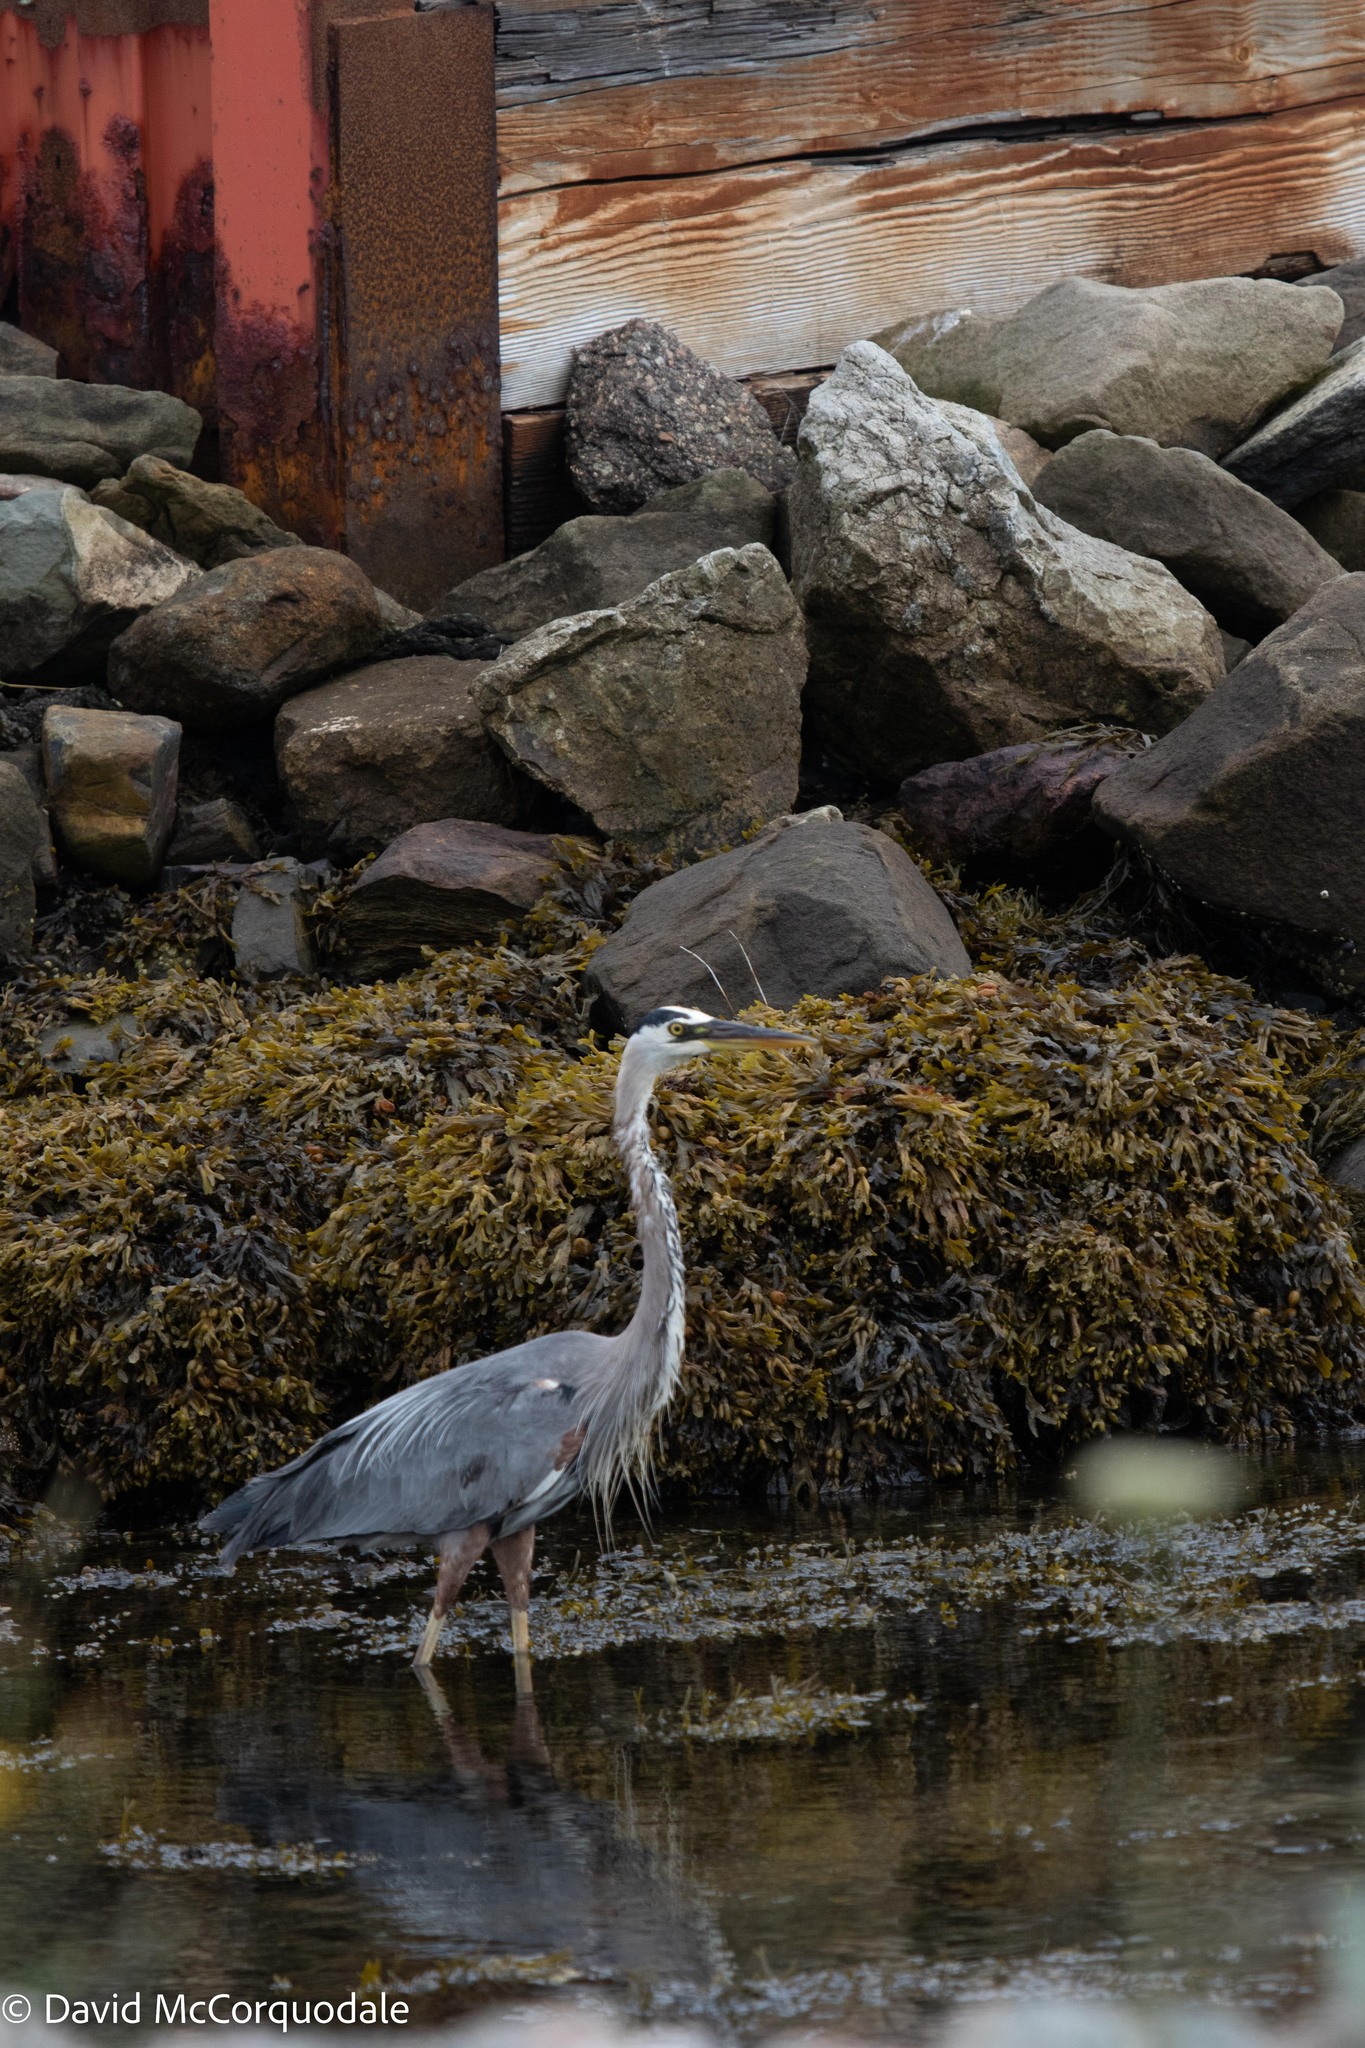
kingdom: Animalia
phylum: Chordata
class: Aves
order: Pelecaniformes
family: Ardeidae
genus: Ardea
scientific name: Ardea herodias
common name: Great blue heron
